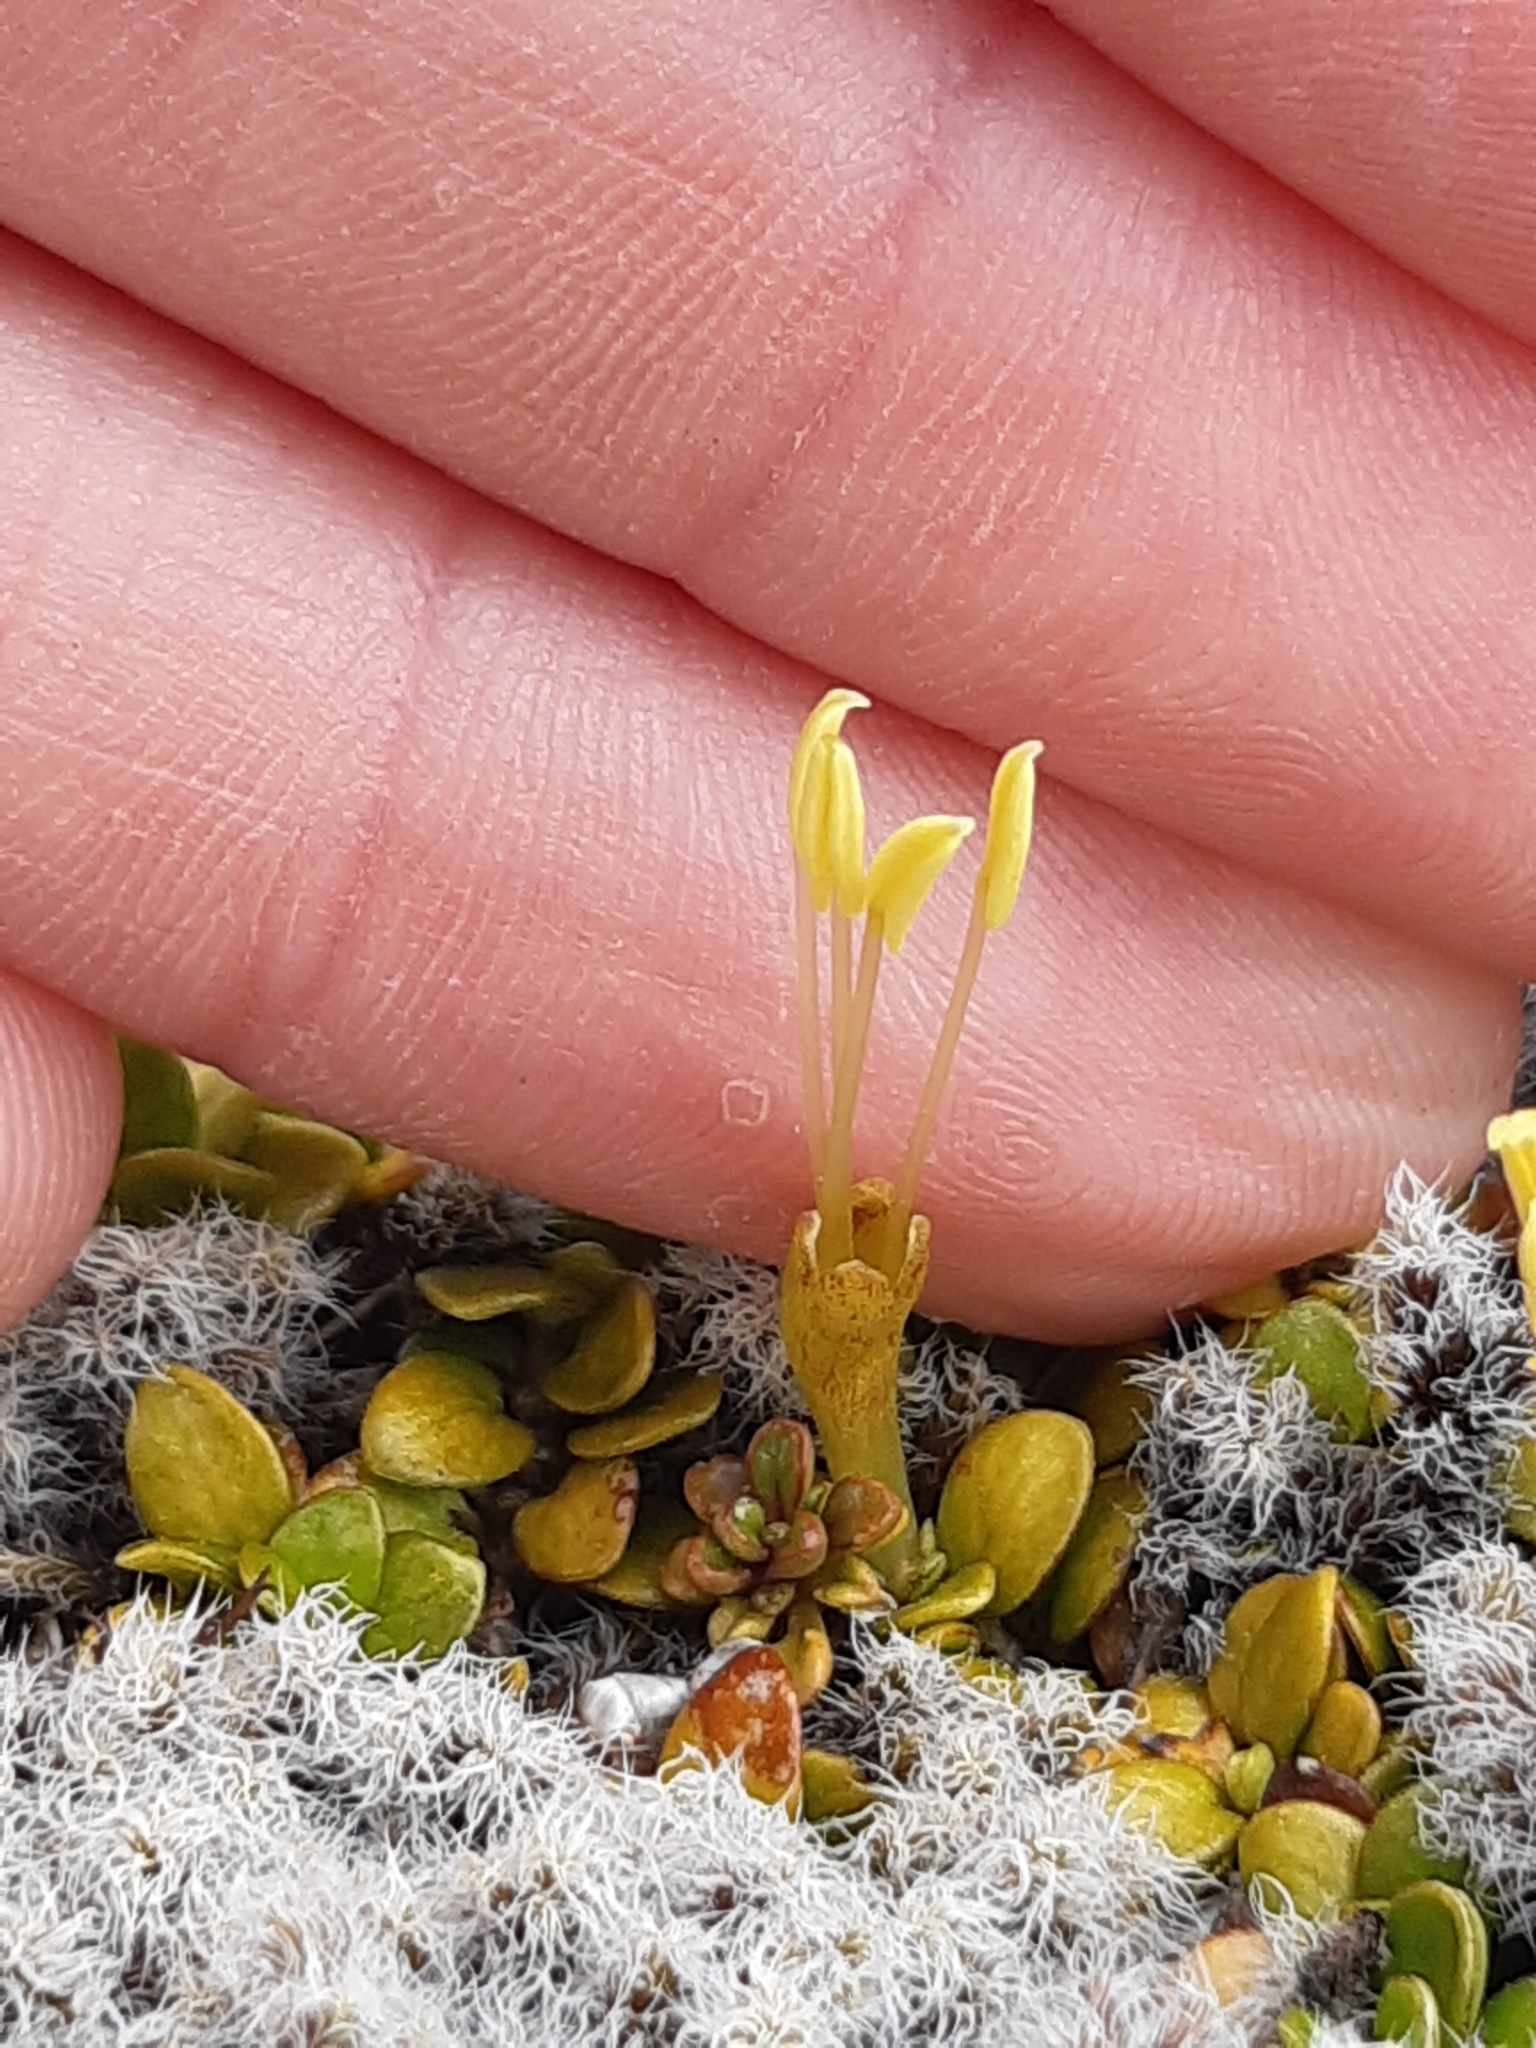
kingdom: Plantae
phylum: Tracheophyta
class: Magnoliopsida
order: Gentianales
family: Rubiaceae
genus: Coprosma
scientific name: Coprosma perpusilla
